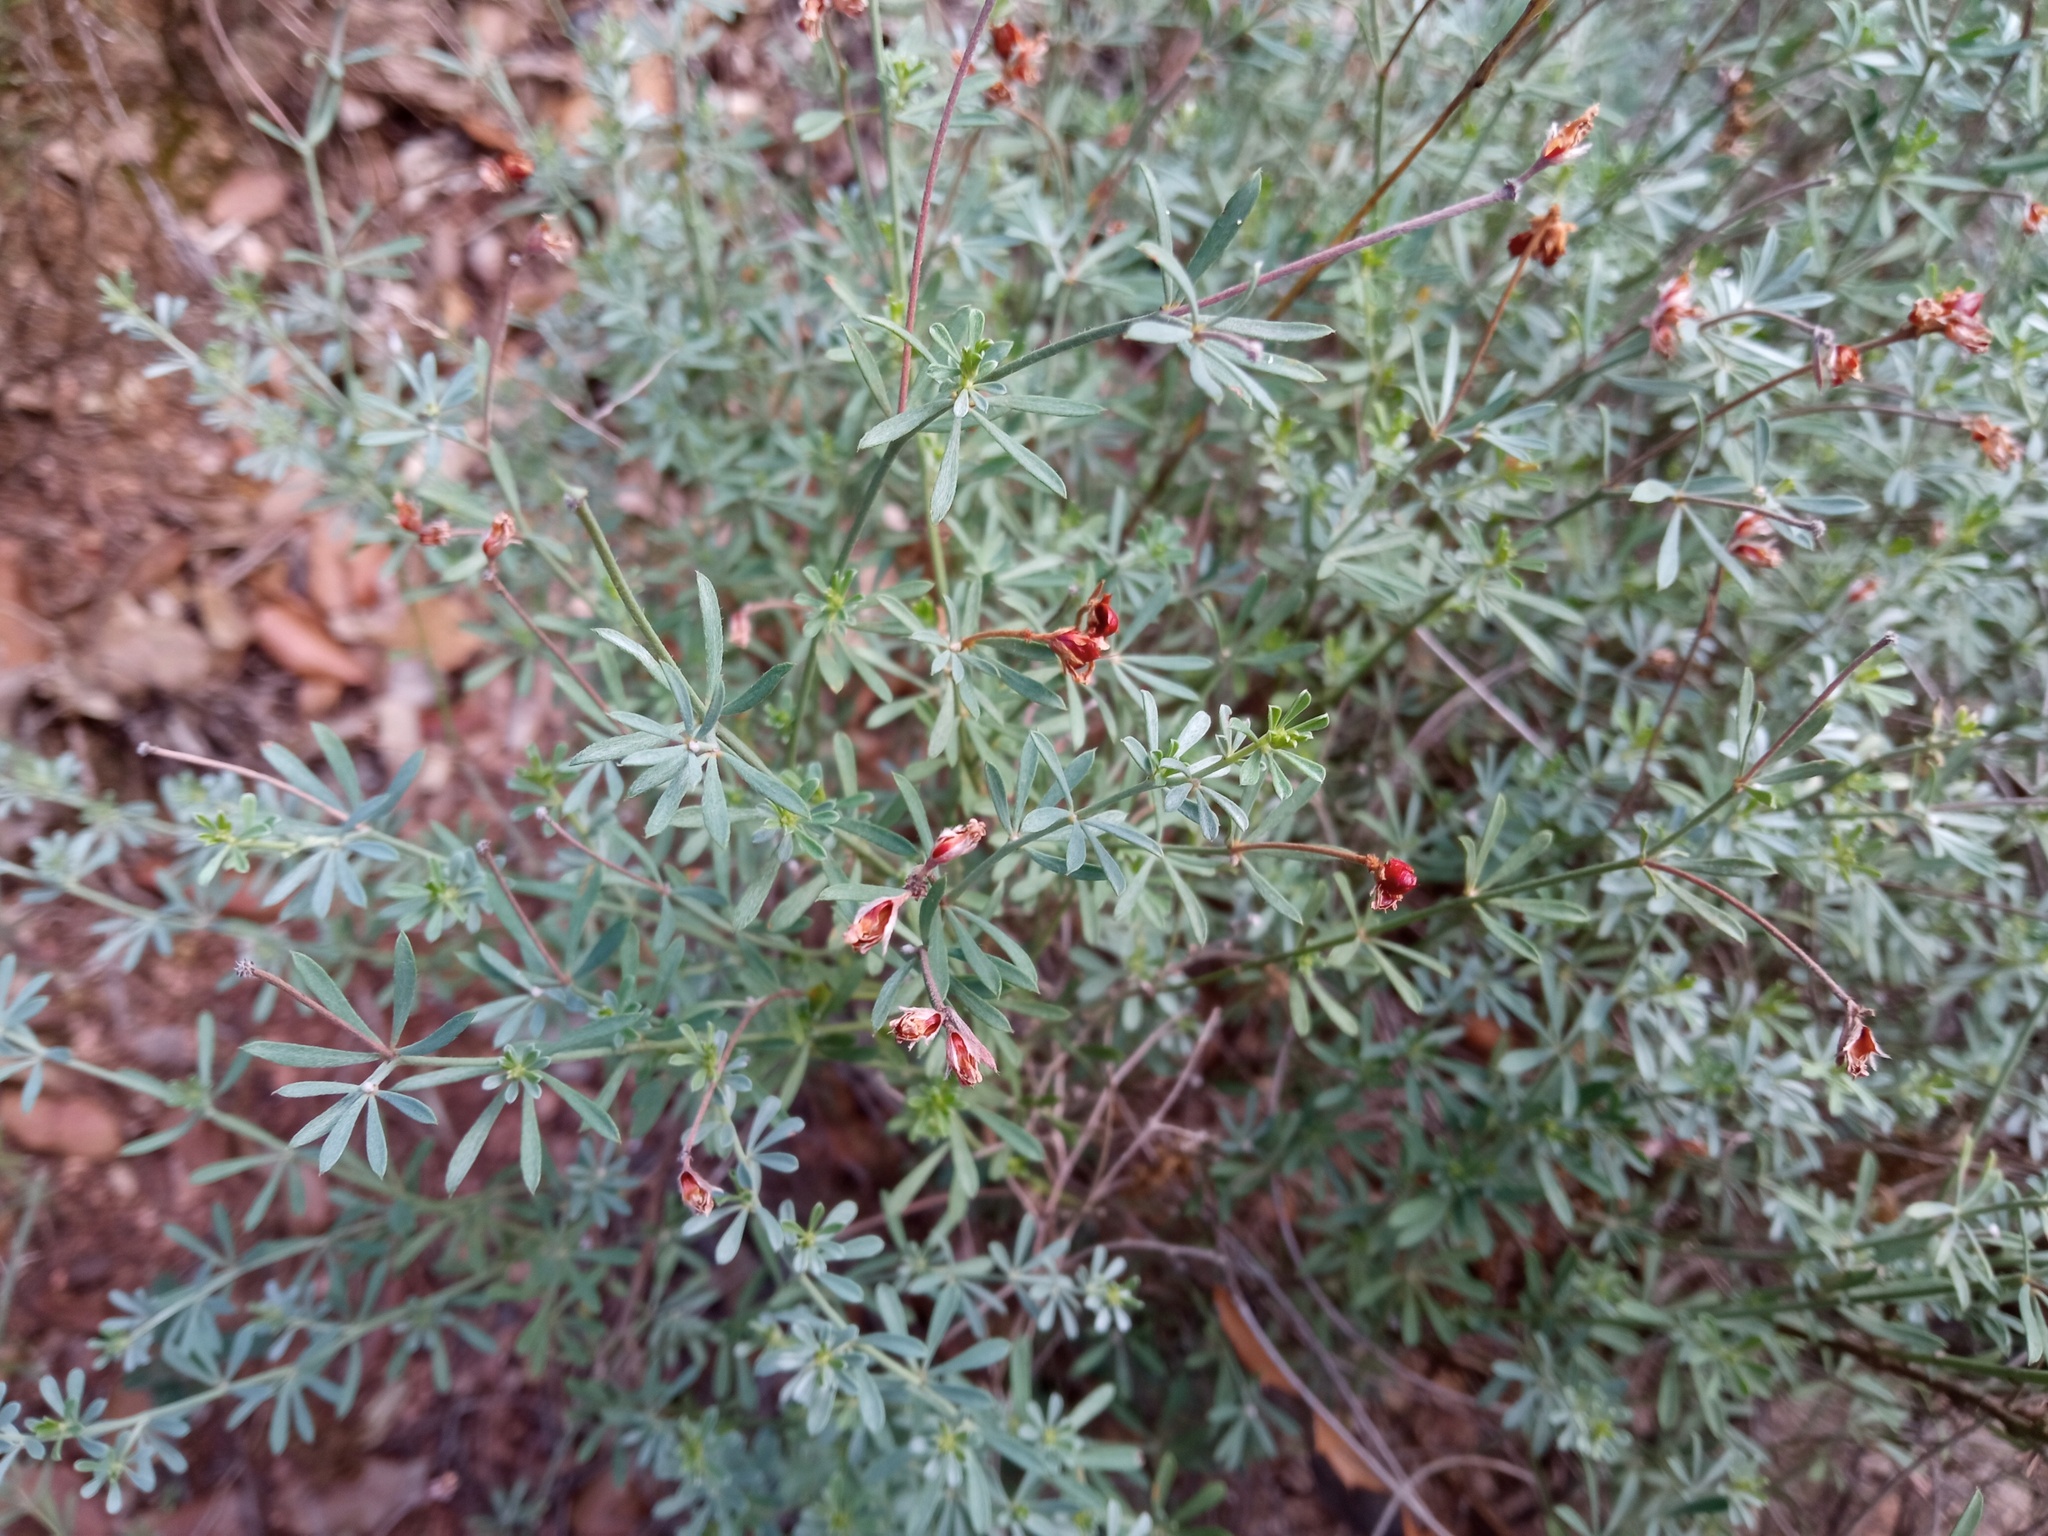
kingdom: Plantae
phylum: Tracheophyta
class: Magnoliopsida
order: Fabales
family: Fabaceae
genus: Lotus
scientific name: Lotus dorycnium
